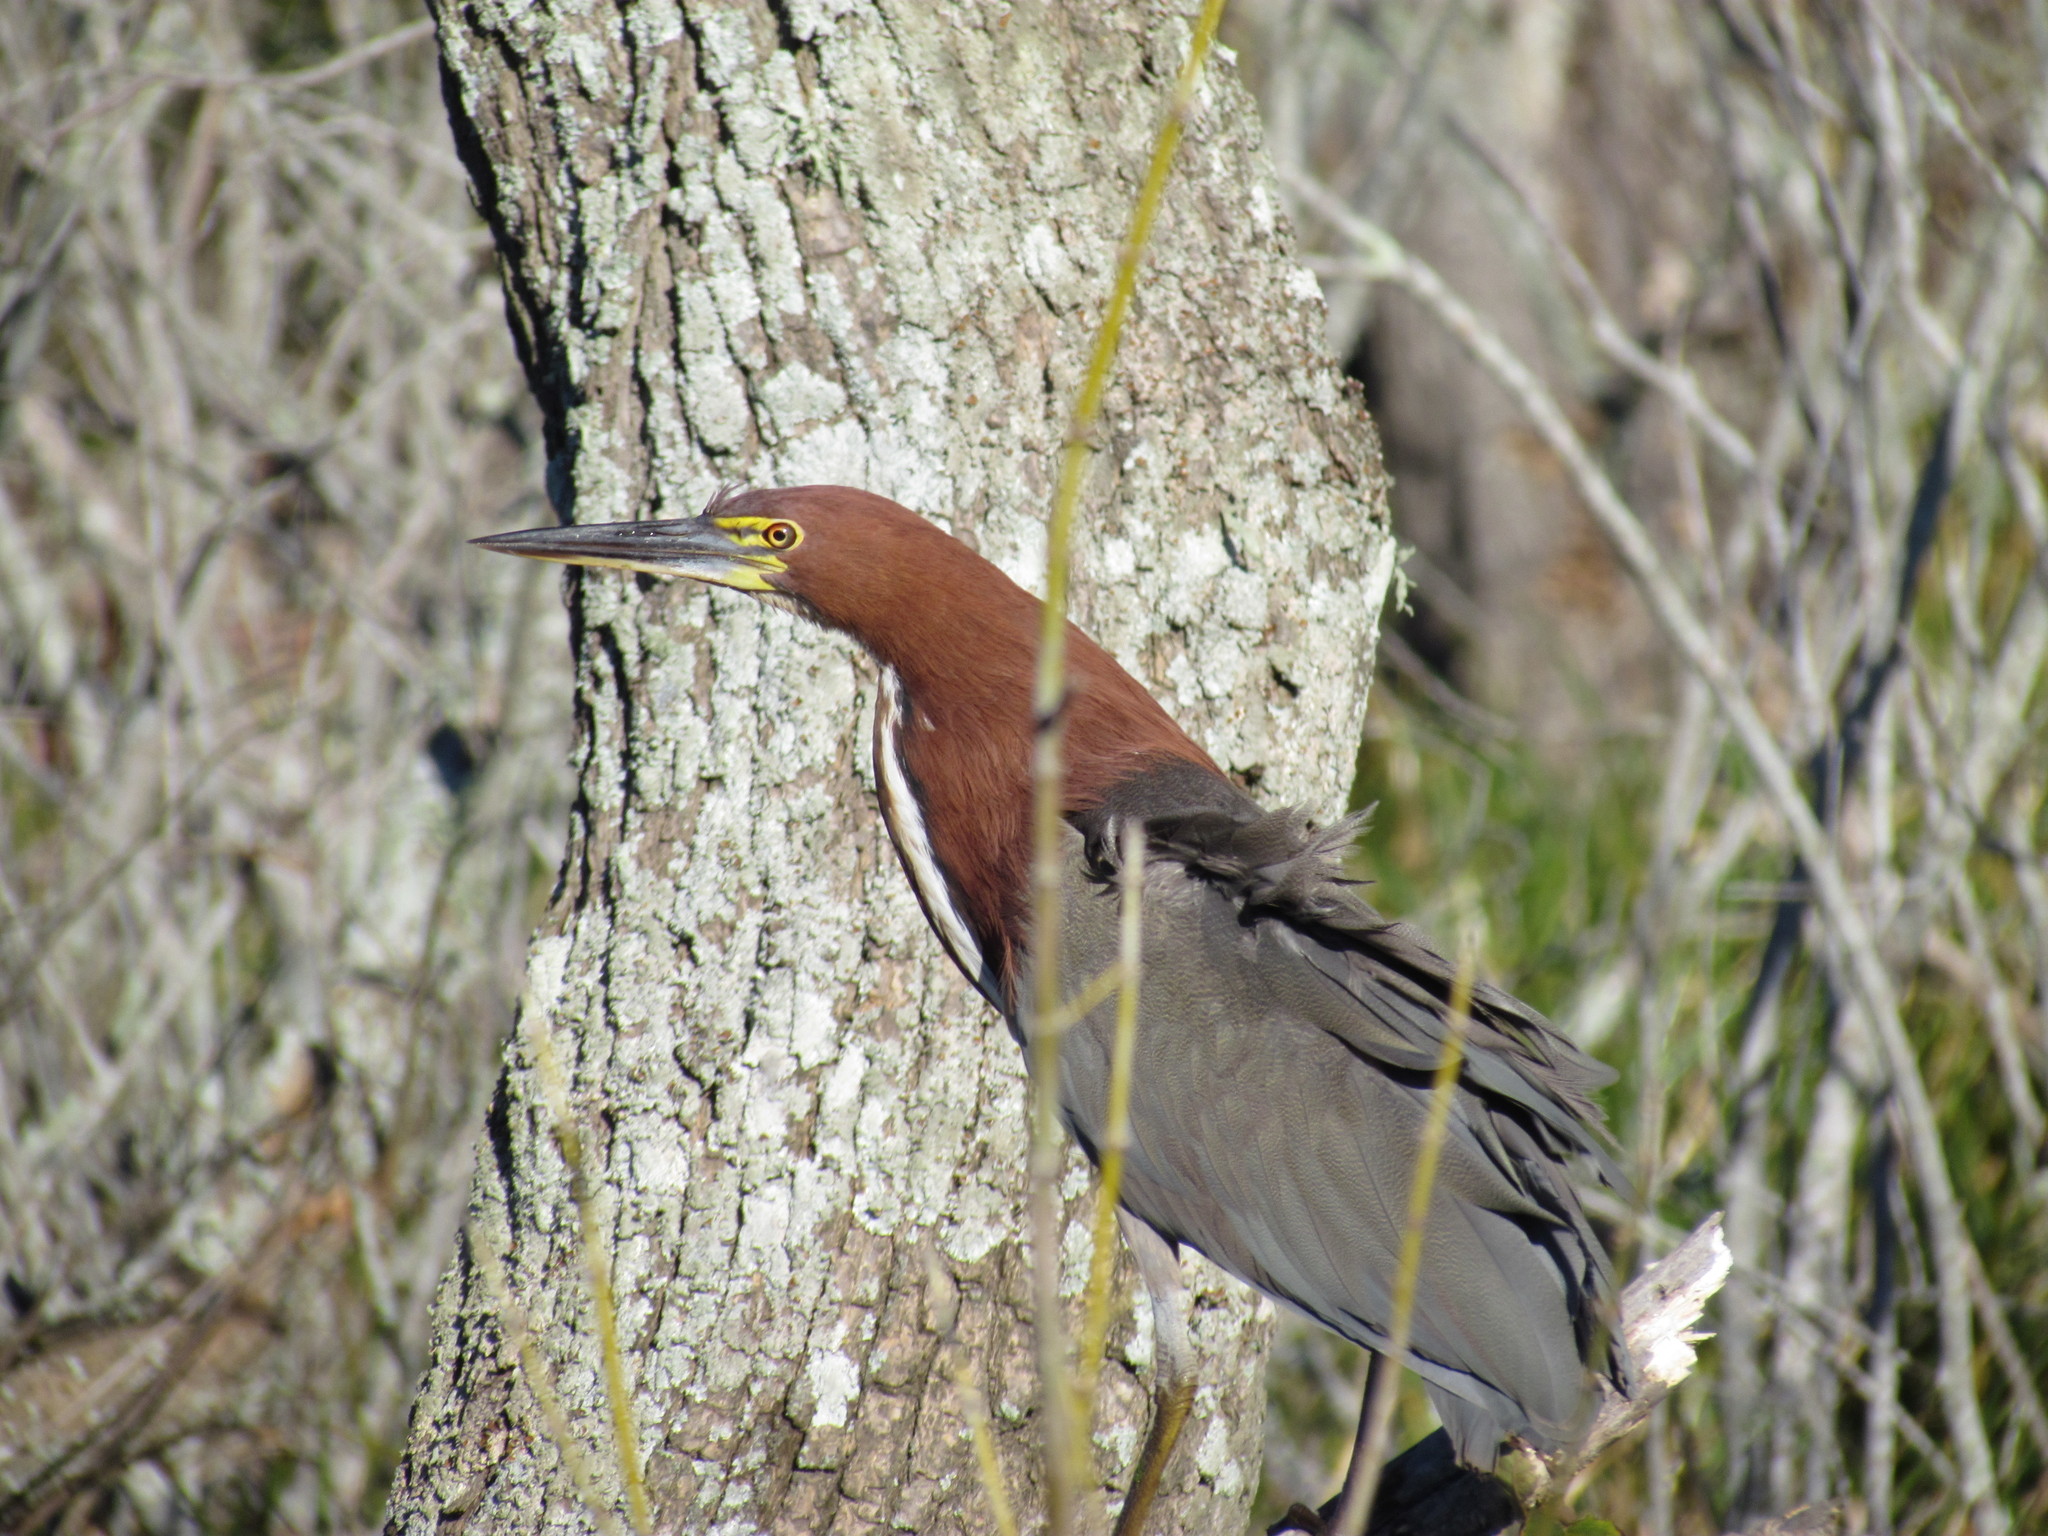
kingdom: Animalia
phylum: Chordata
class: Aves
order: Pelecaniformes
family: Ardeidae
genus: Tigrisoma
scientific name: Tigrisoma lineatum
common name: Rufescent tiger-heron
